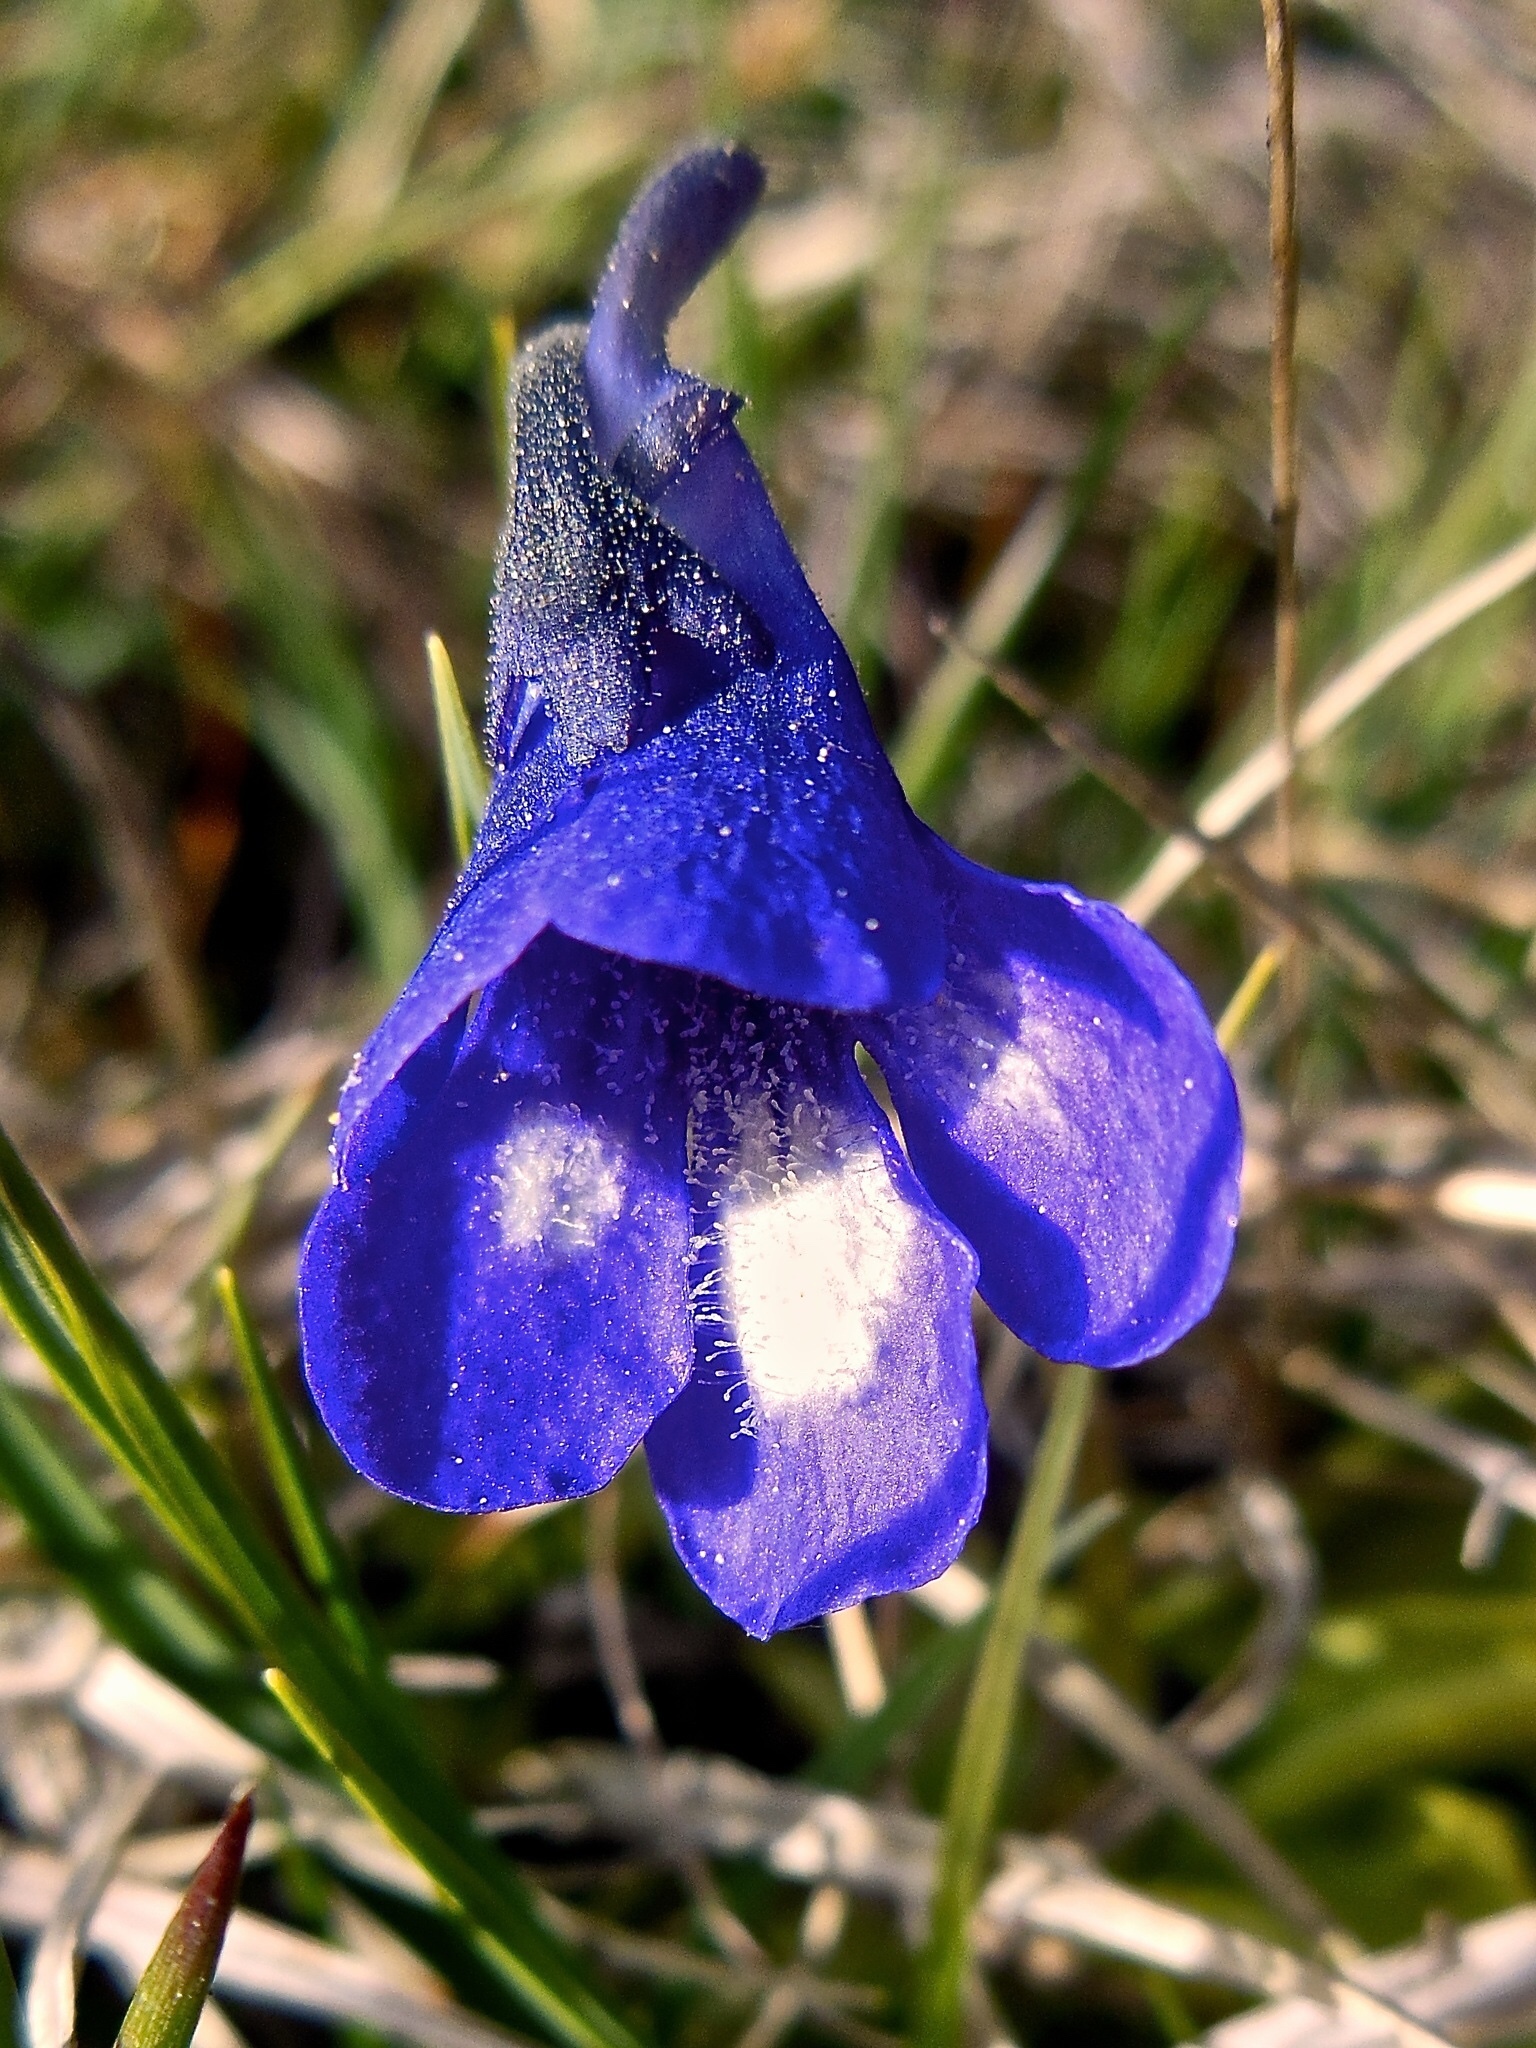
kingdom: Plantae
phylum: Tracheophyta
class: Magnoliopsida
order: Lamiales
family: Lentibulariaceae
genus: Pinguicula
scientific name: Pinguicula leptoceras
